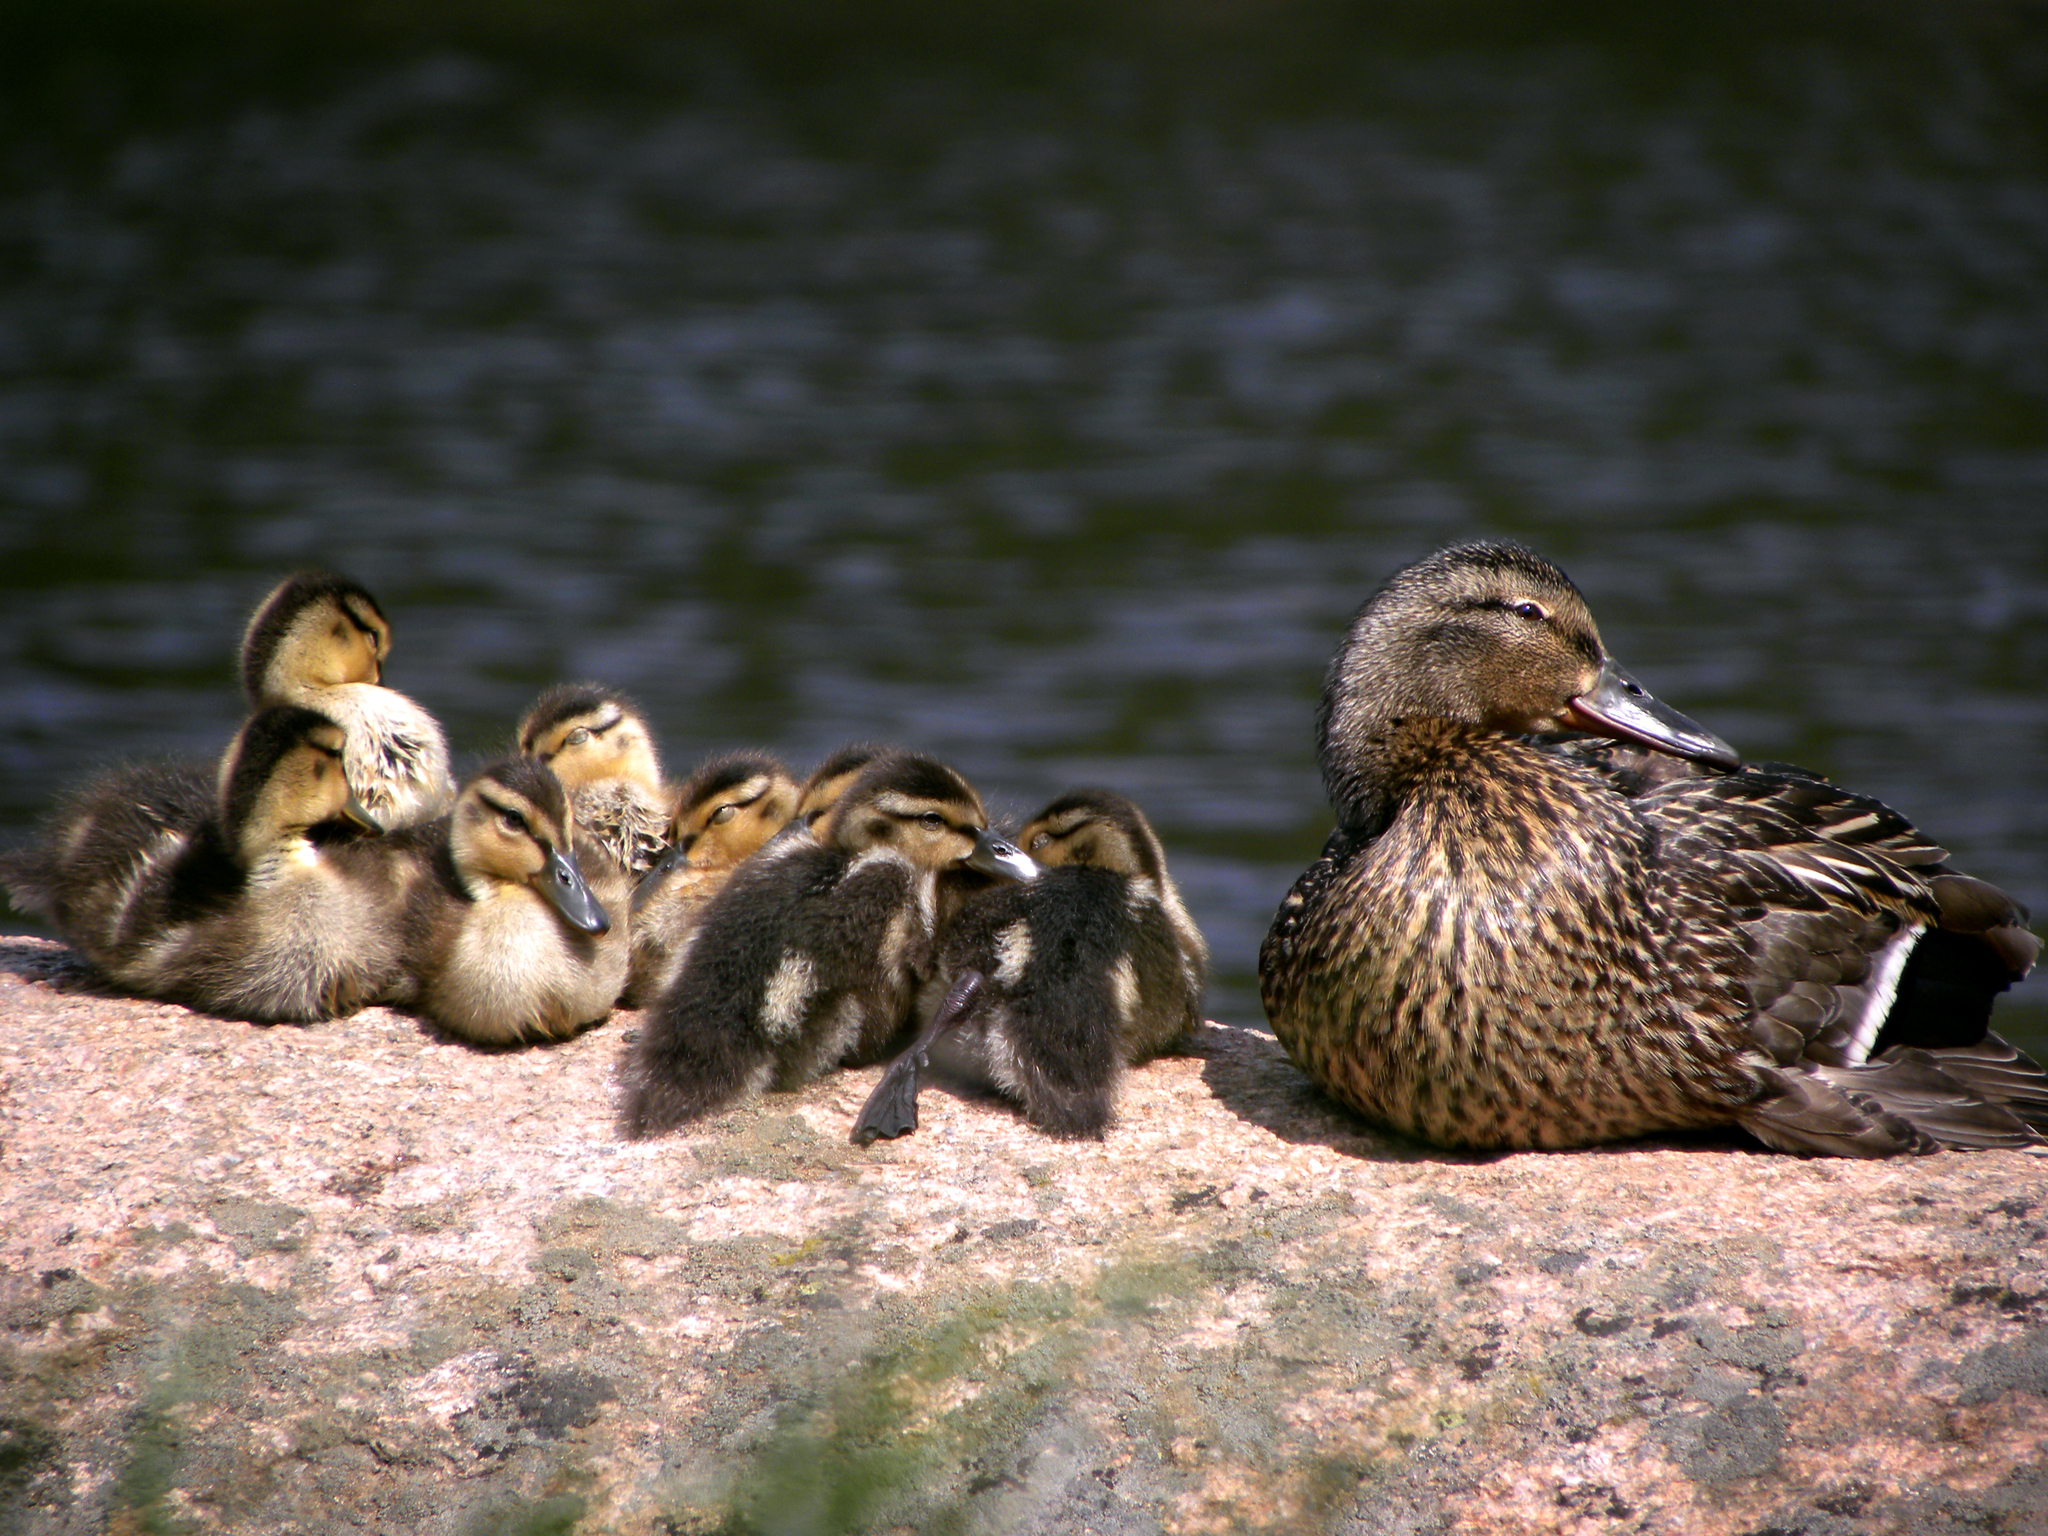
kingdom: Animalia
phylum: Chordata
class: Aves
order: Anseriformes
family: Anatidae
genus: Anas
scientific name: Anas platyrhynchos
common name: Mallard
